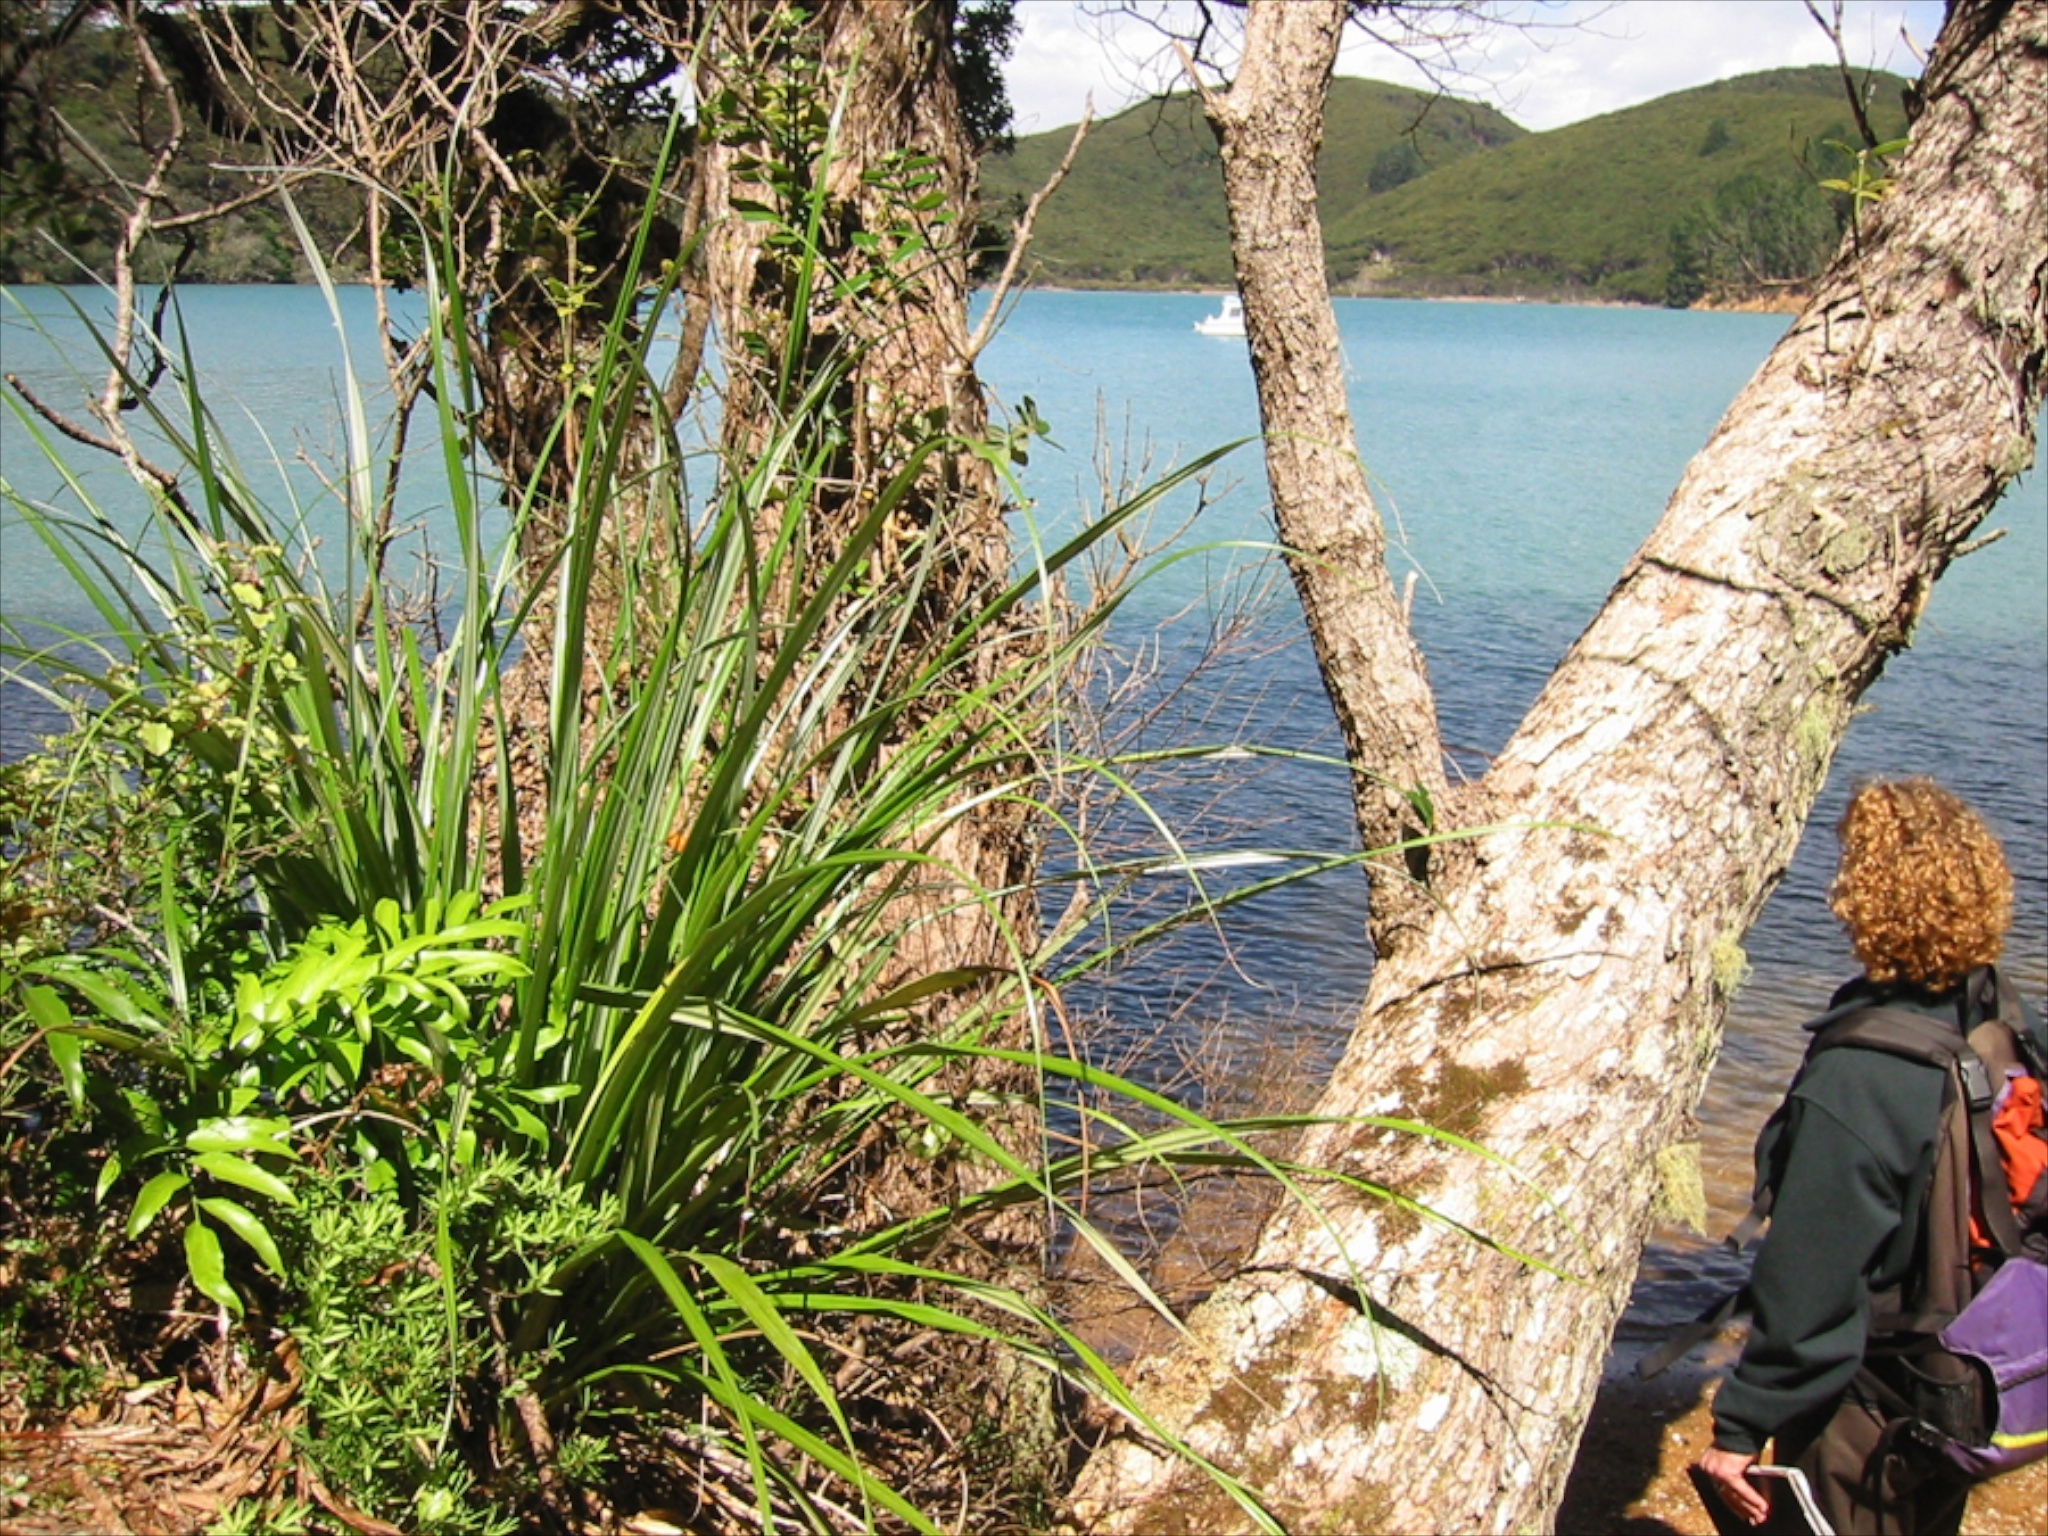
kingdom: Plantae
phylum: Tracheophyta
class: Liliopsida
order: Asparagales
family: Asteliaceae
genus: Astelia
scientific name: Astelia banksii
